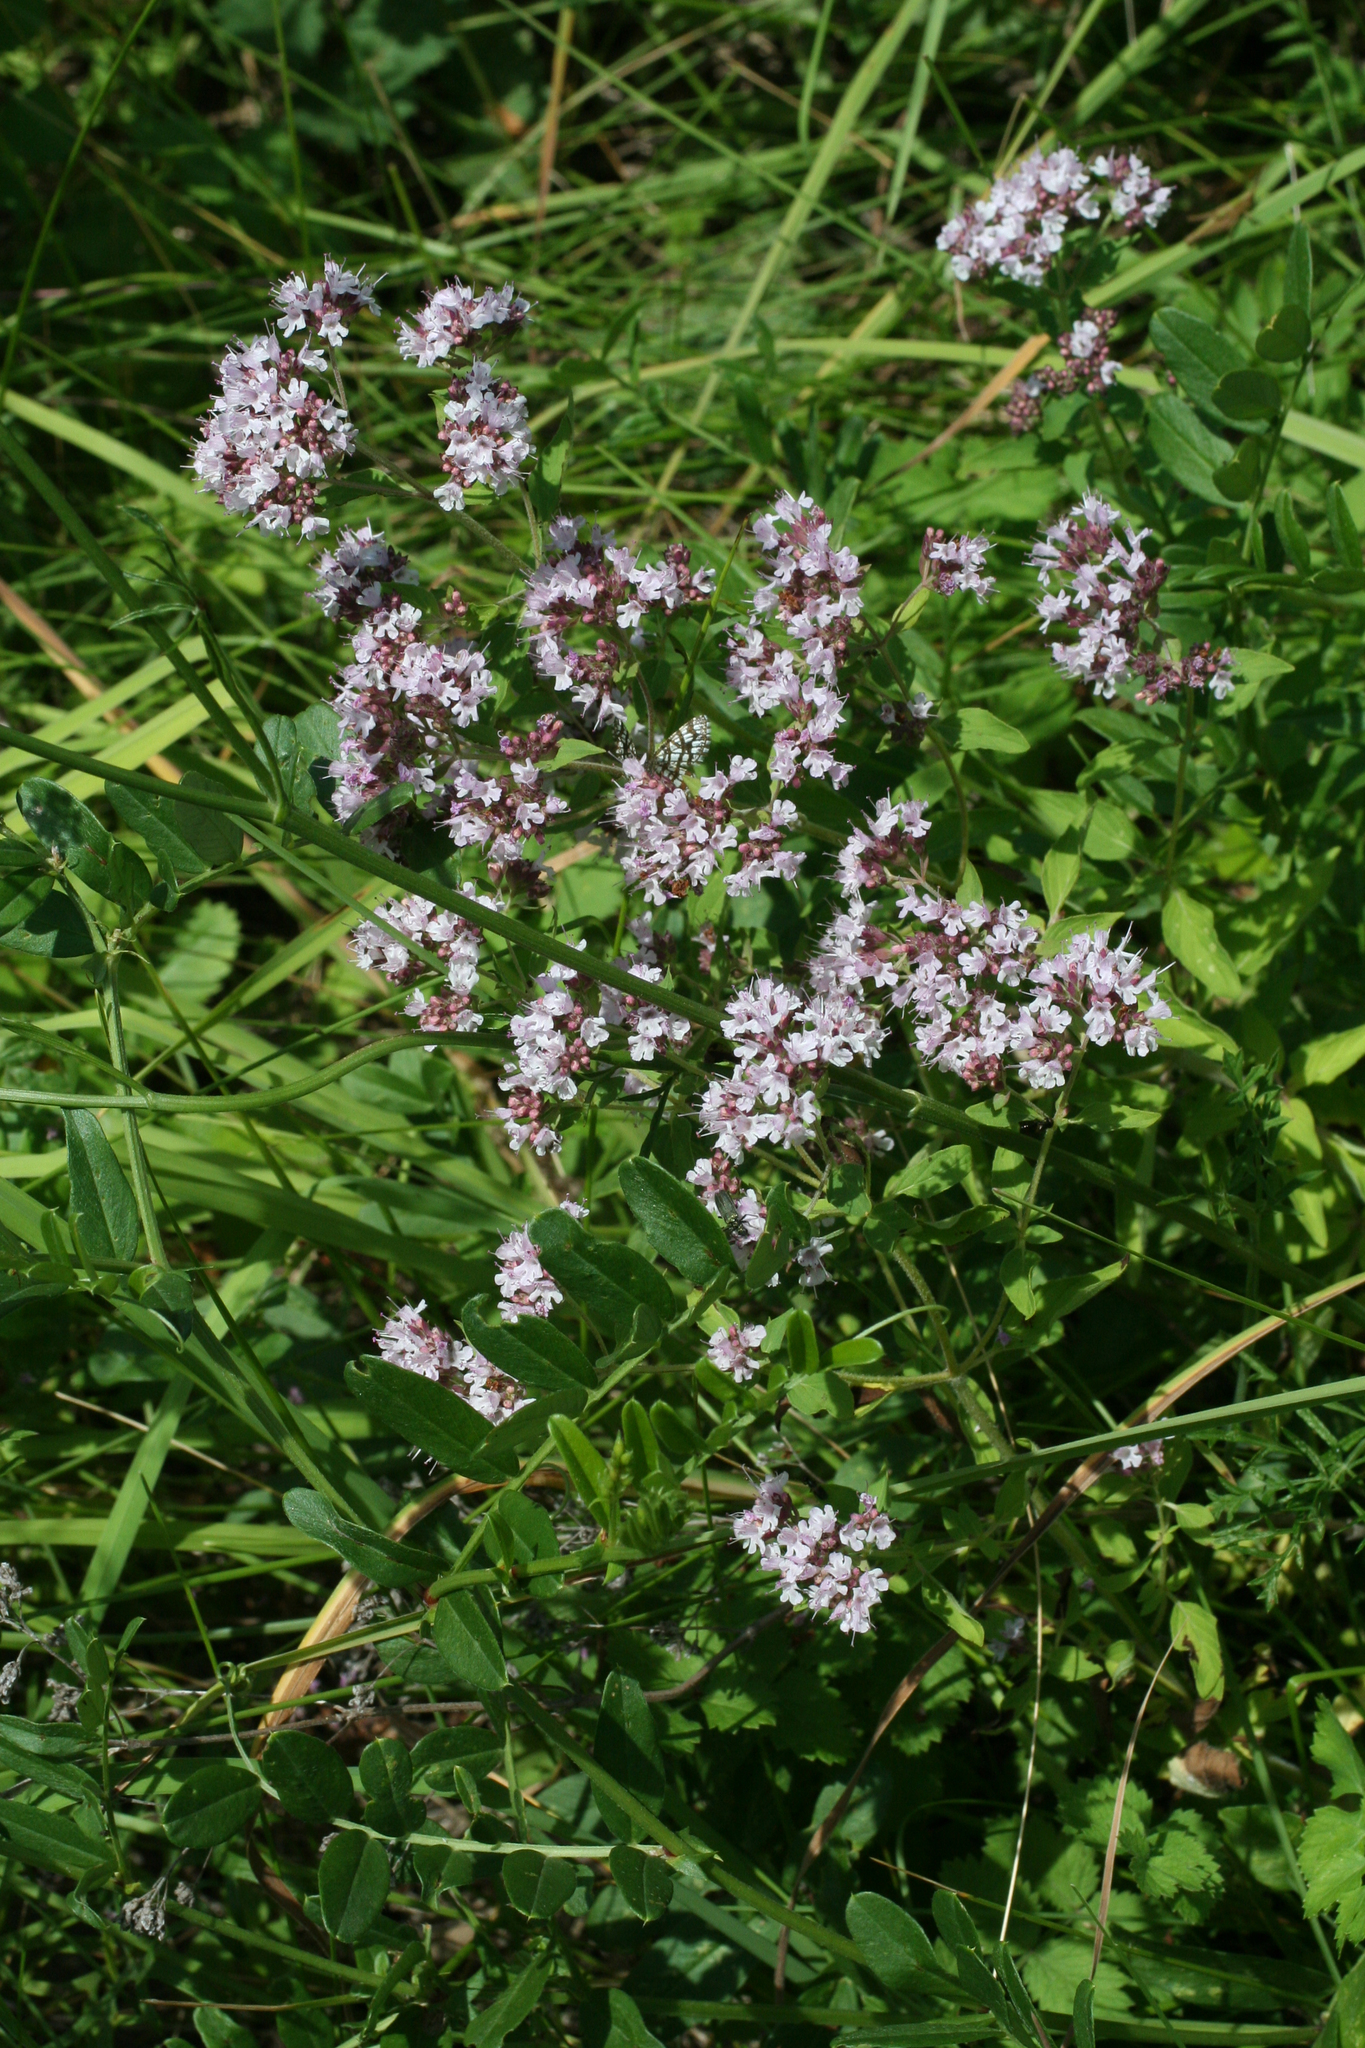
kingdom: Plantae
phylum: Tracheophyta
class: Magnoliopsida
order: Lamiales
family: Lamiaceae
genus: Origanum
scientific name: Origanum vulgare
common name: Wild marjoram
